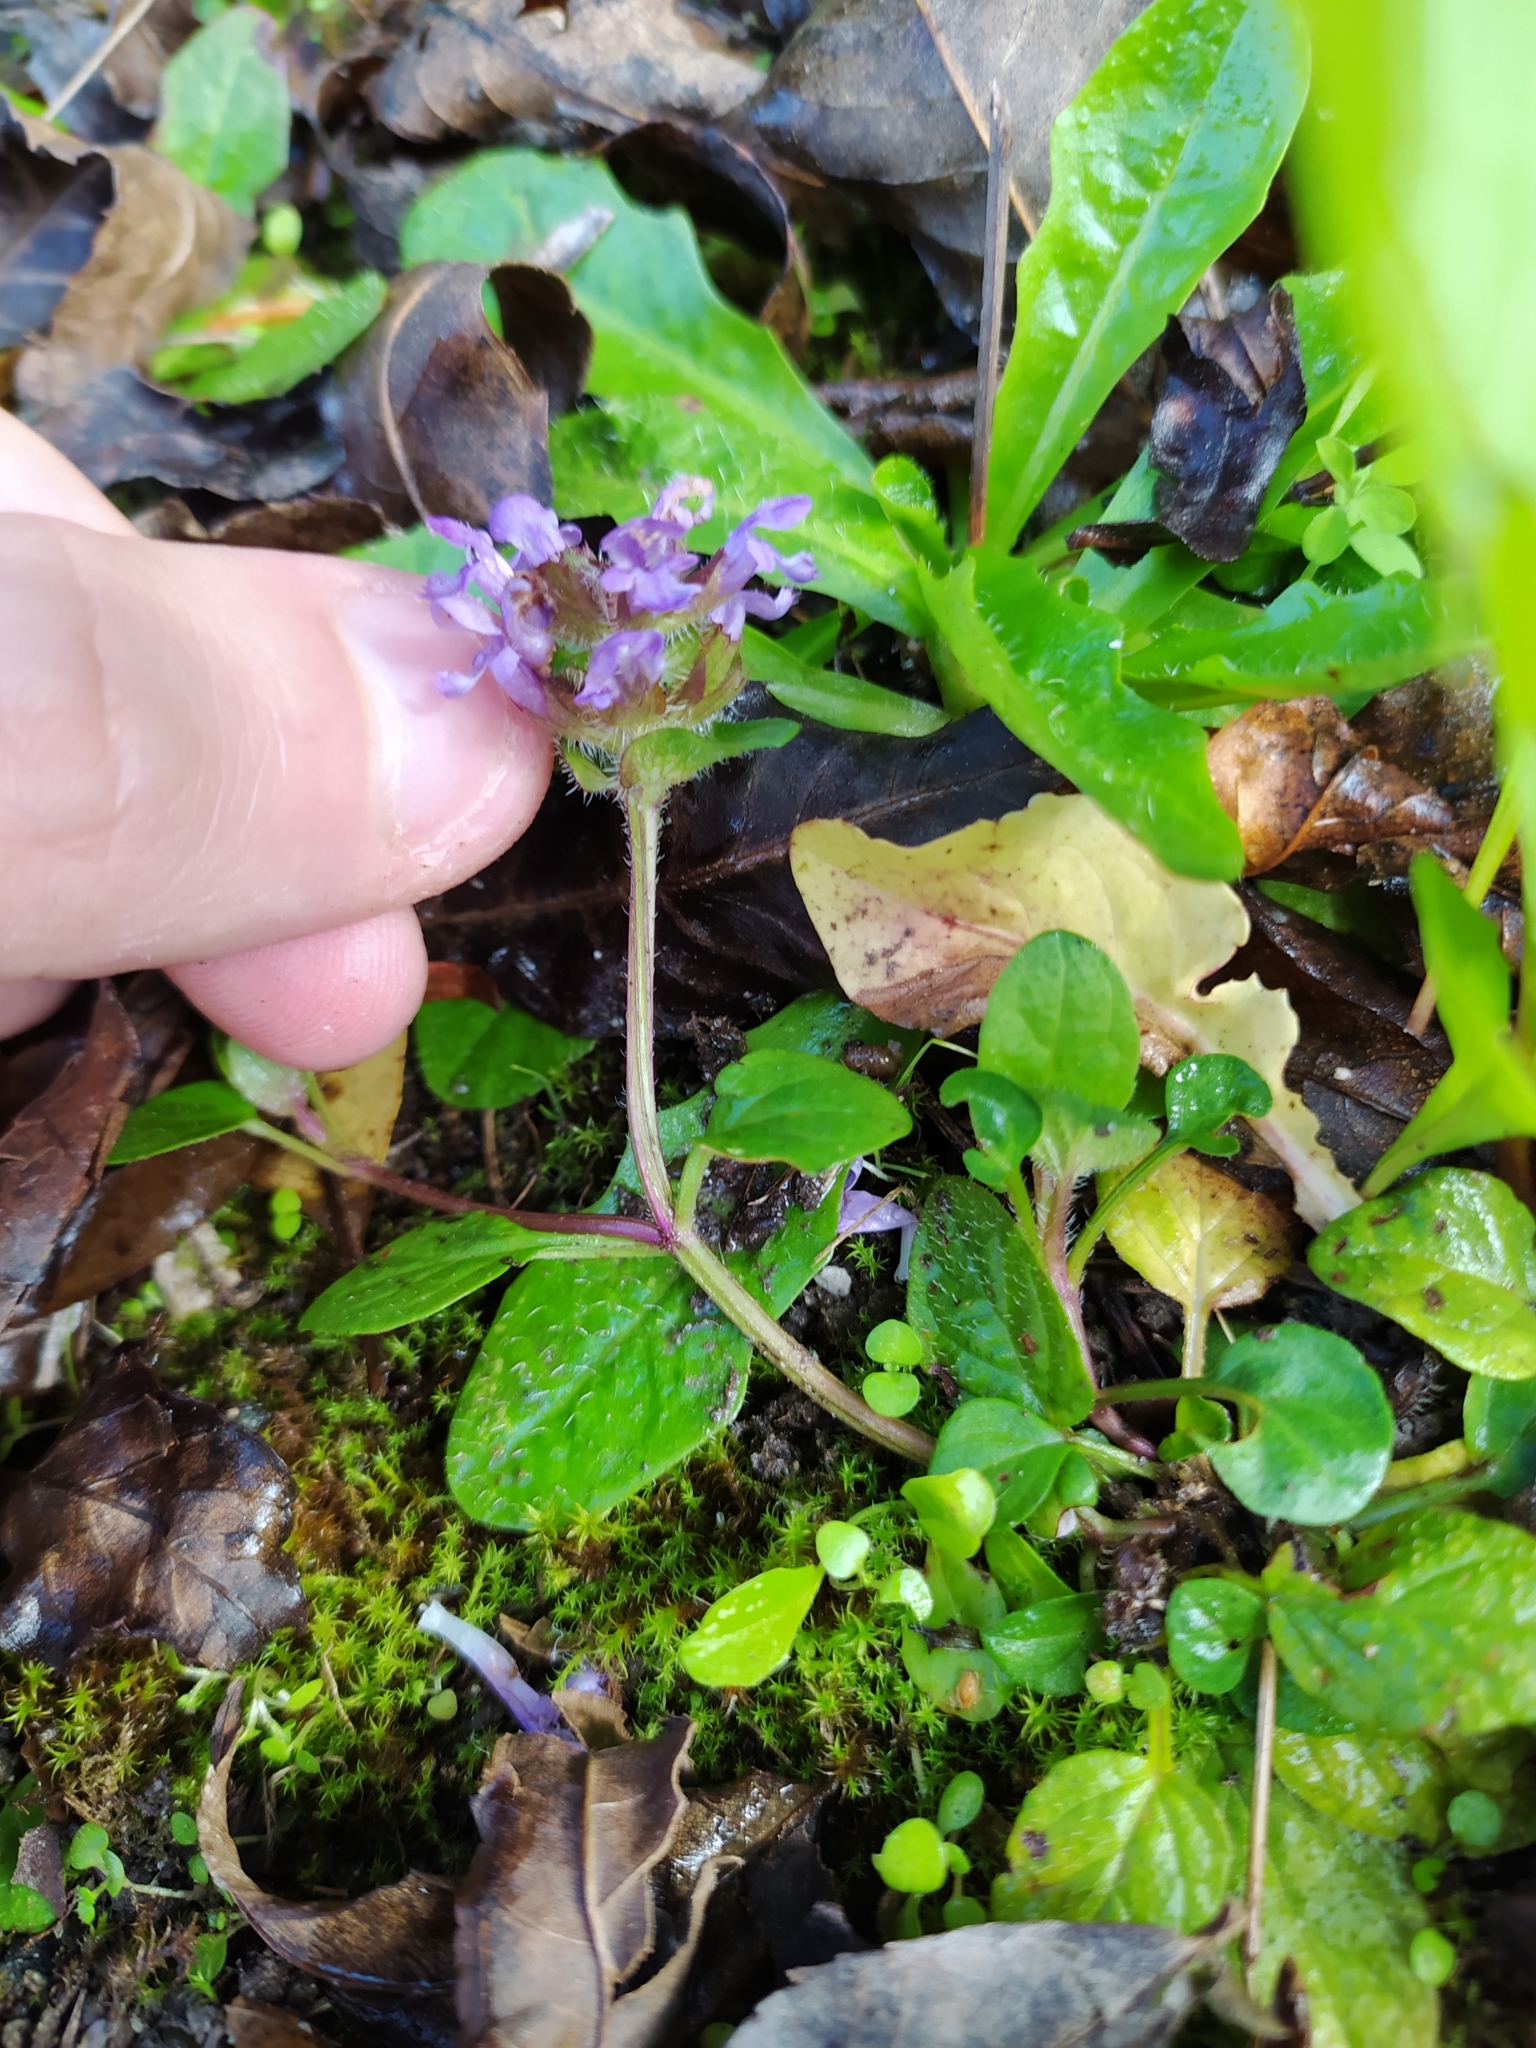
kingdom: Plantae
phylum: Tracheophyta
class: Magnoliopsida
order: Lamiales
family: Lamiaceae
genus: Prunella
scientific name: Prunella vulgaris
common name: Heal-all
